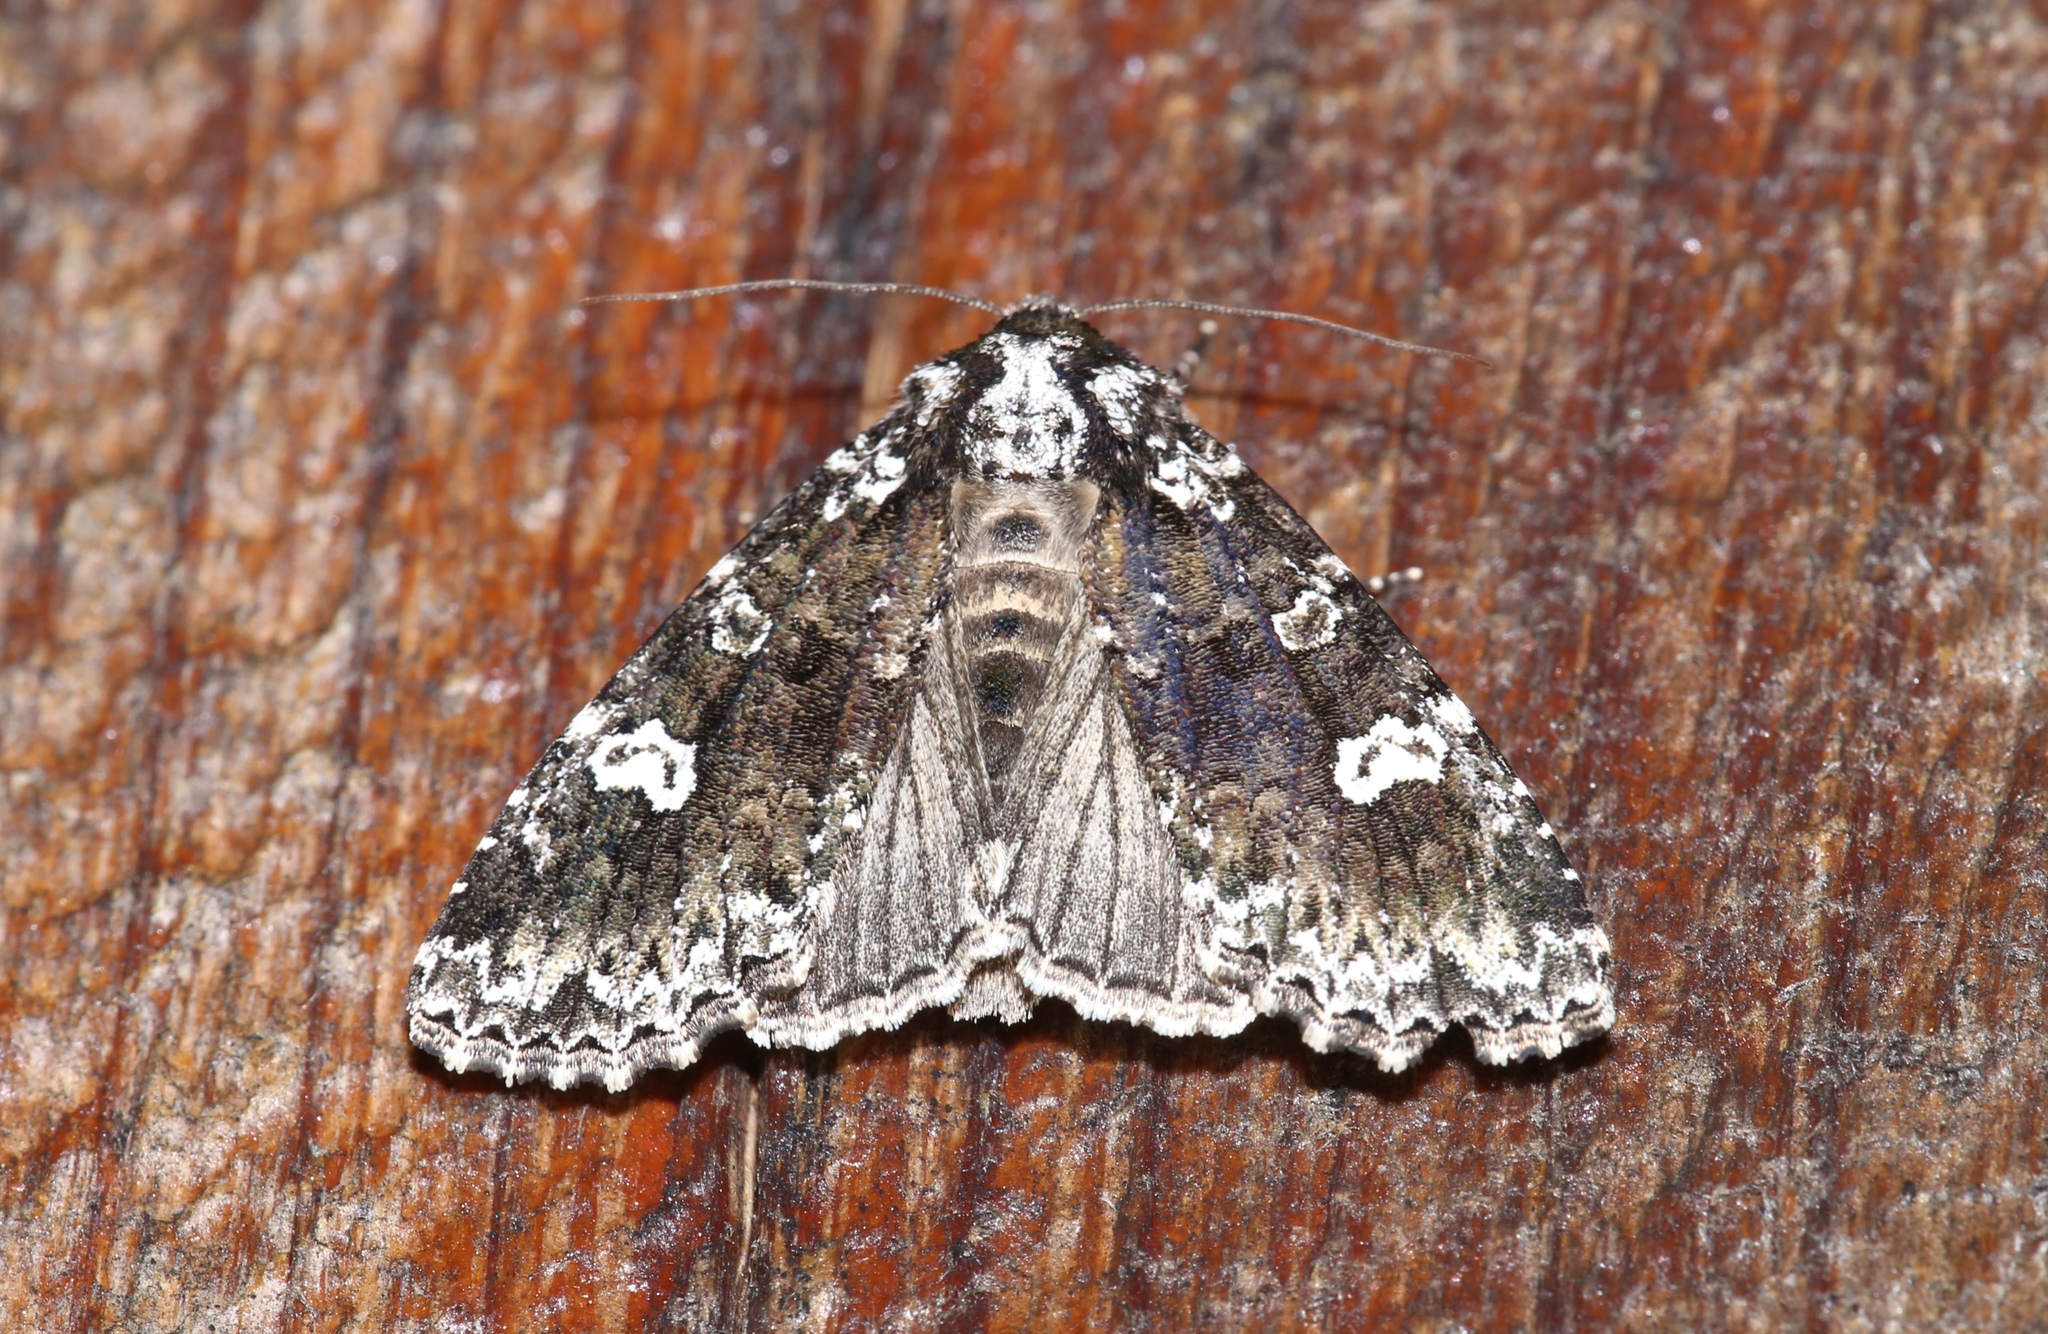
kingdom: Animalia
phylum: Arthropoda
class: Insecta
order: Lepidoptera
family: Noctuidae
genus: Melanchra
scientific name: Melanchra adjuncta
